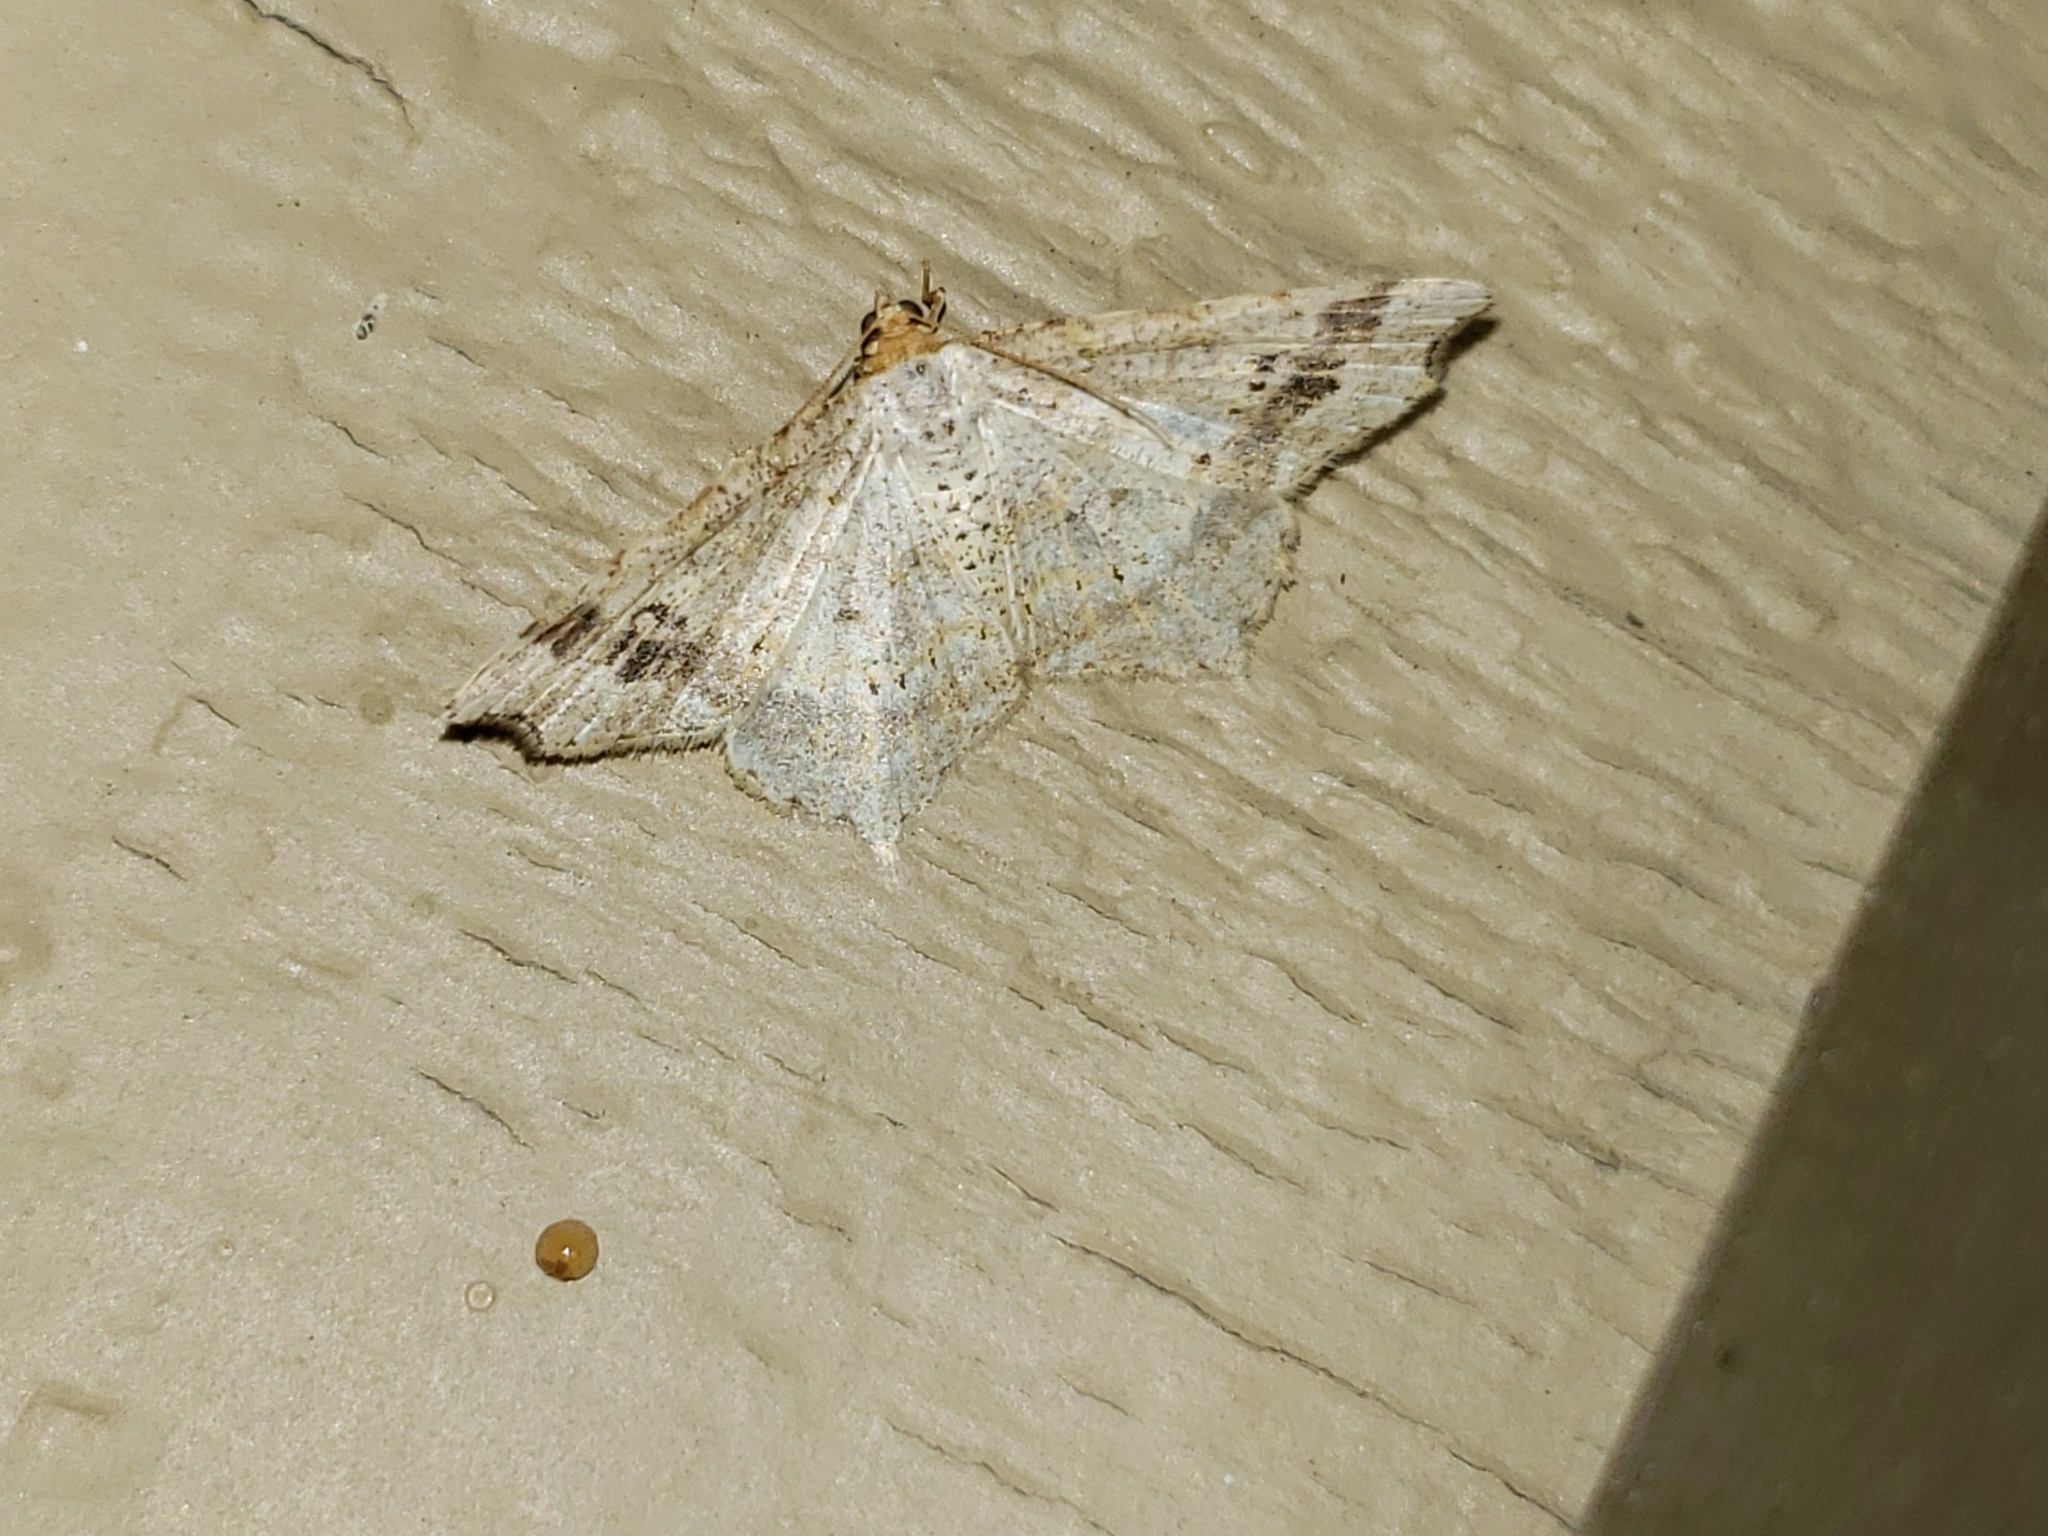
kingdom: Animalia
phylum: Arthropoda
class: Insecta
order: Lepidoptera
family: Geometridae
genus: Macaria
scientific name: Macaria aemulataria
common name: Common angle
